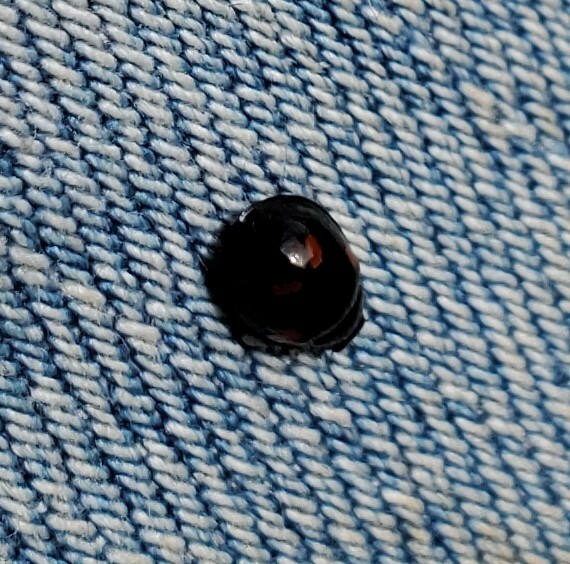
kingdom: Animalia
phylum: Arthropoda
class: Insecta
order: Coleoptera
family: Coccinellidae
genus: Brumus
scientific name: Brumus quadripustulatus
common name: Ladybird beetle
